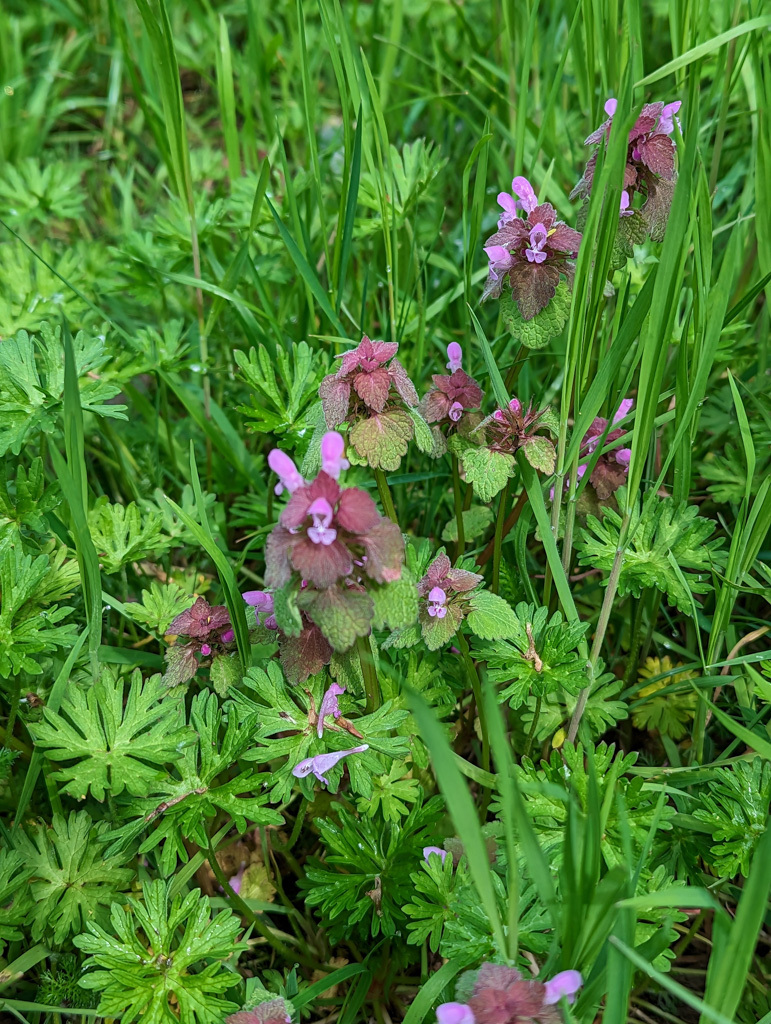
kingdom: Plantae
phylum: Tracheophyta
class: Magnoliopsida
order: Lamiales
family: Lamiaceae
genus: Lamium
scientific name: Lamium purpureum
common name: Red dead-nettle
